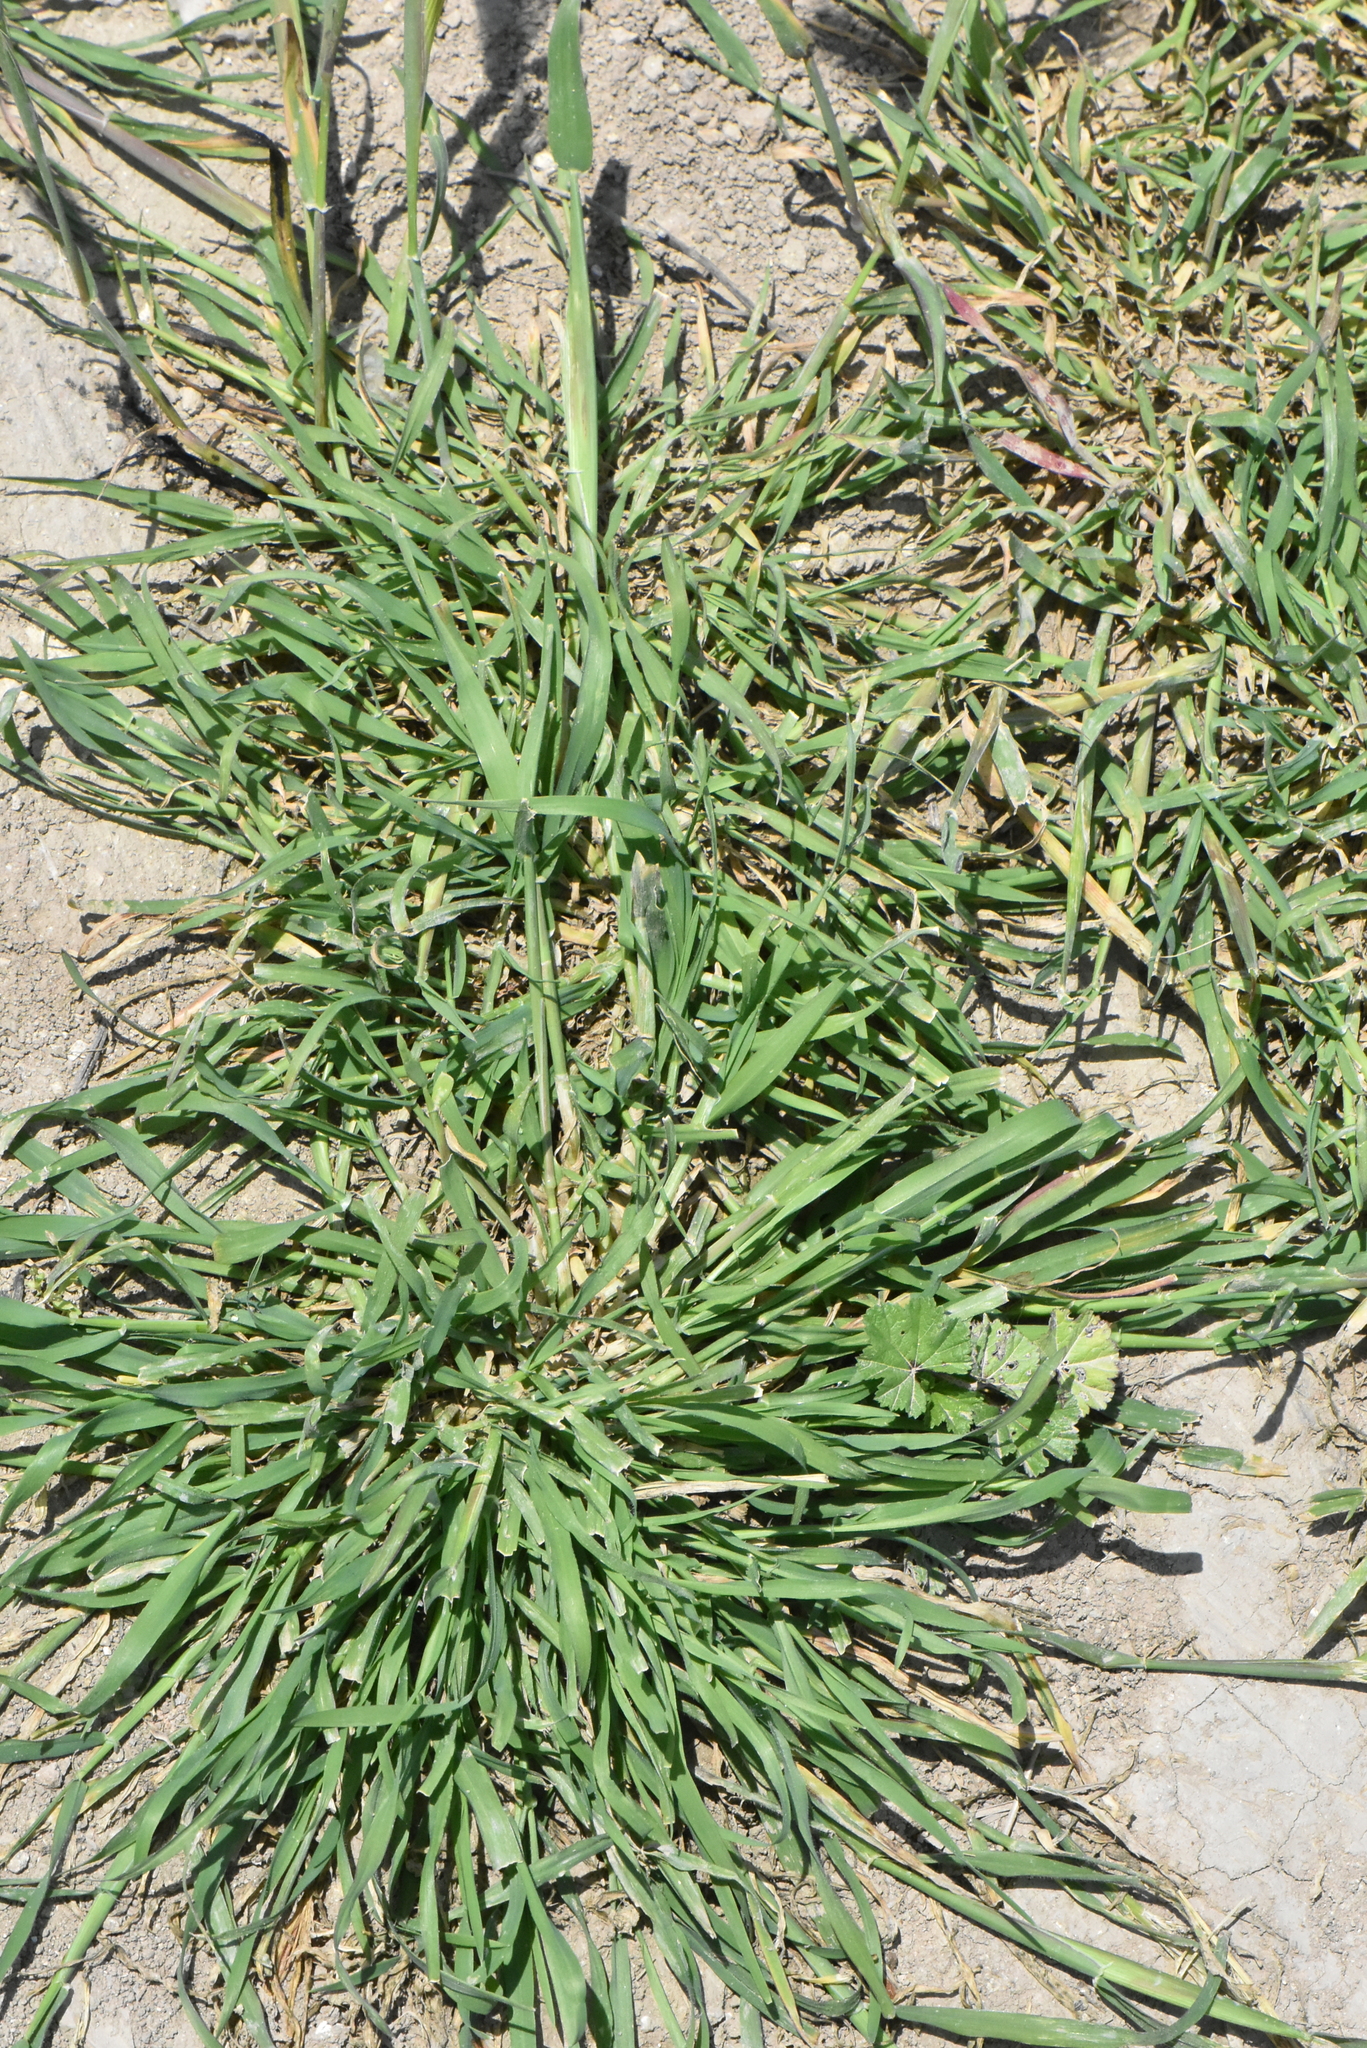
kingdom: Plantae
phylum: Tracheophyta
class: Liliopsida
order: Poales
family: Poaceae
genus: Hordeum
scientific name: Hordeum murinum
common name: Wall barley
